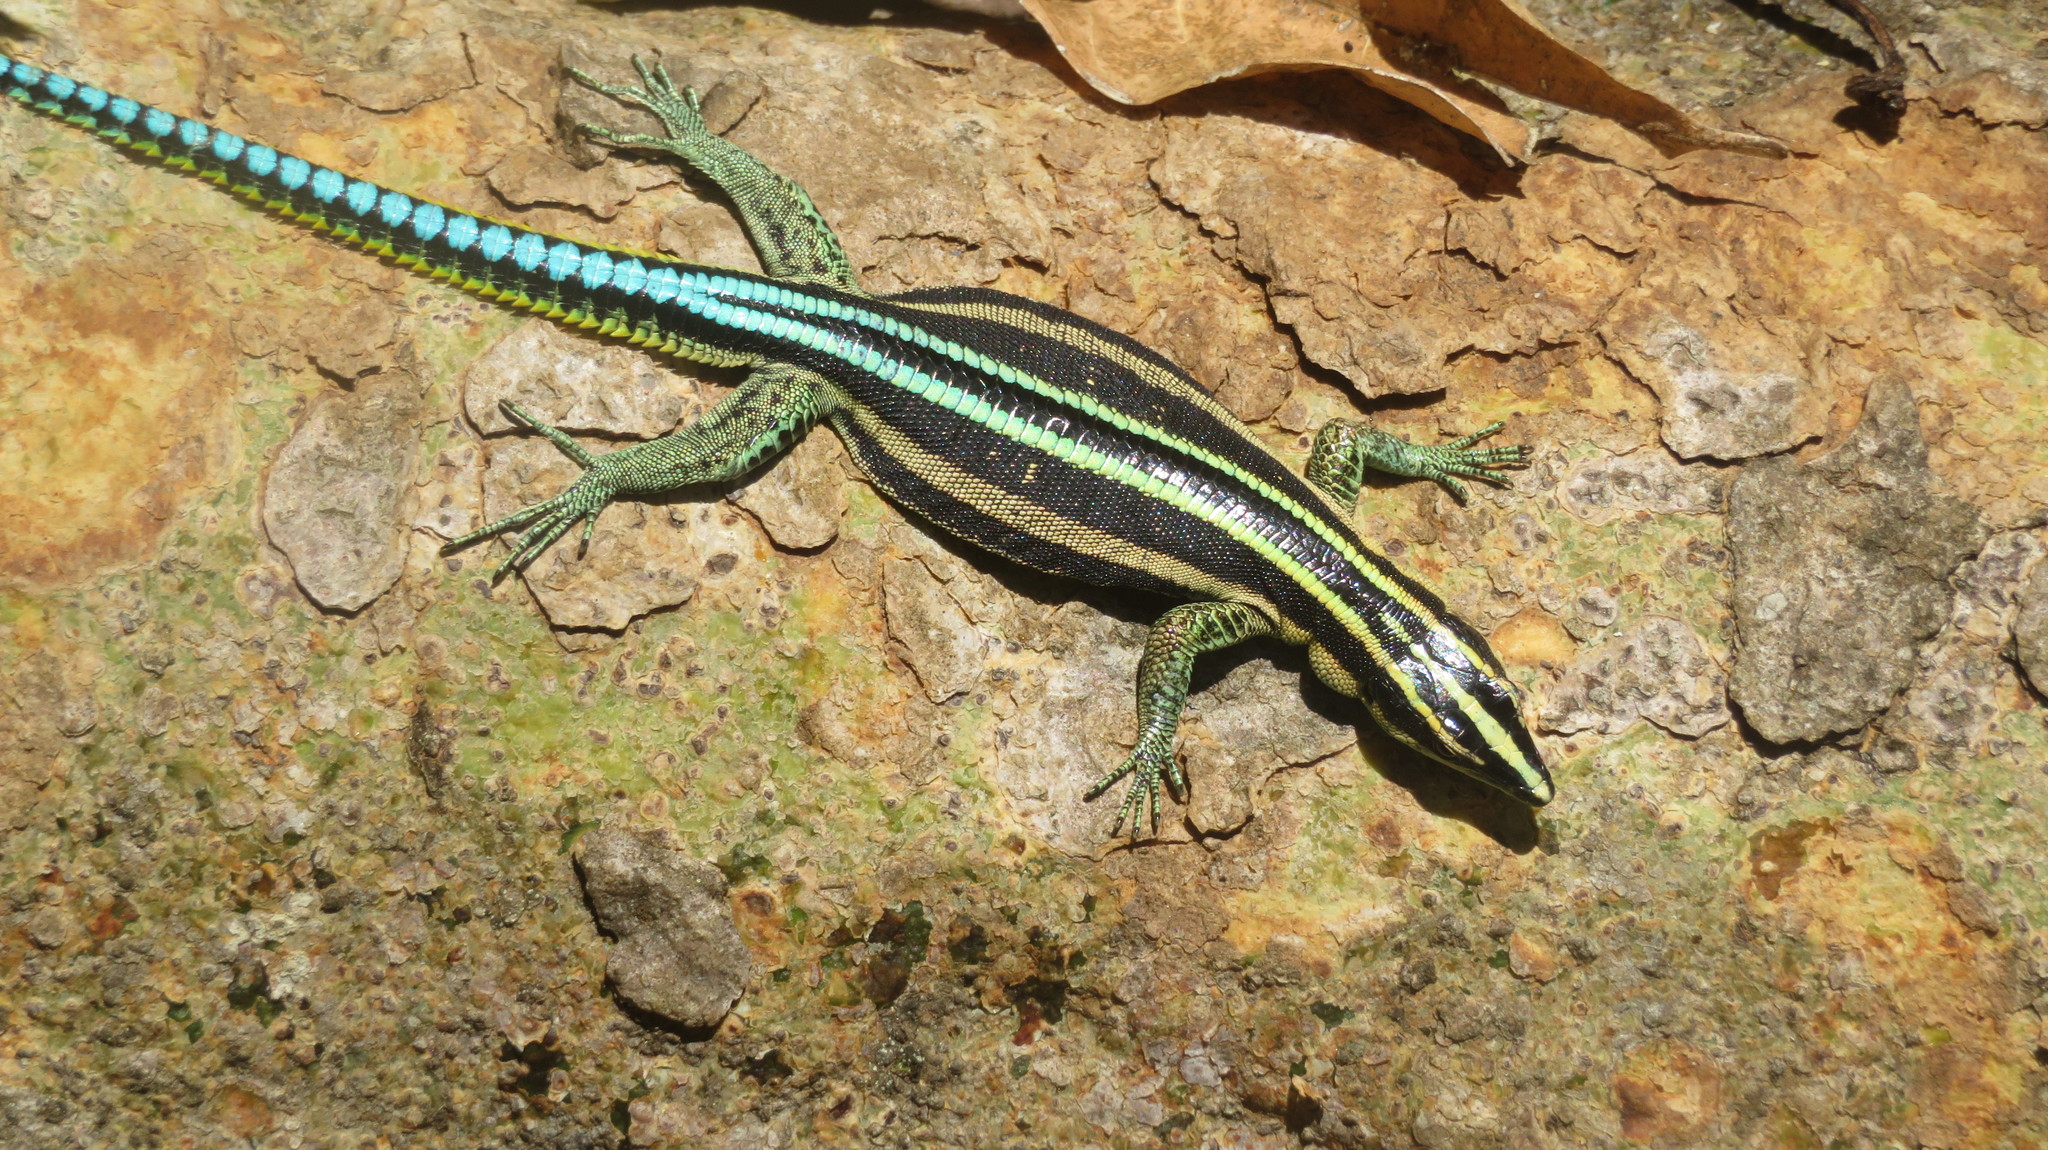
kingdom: Animalia
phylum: Chordata
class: Squamata
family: Lacertidae
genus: Holaspis
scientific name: Holaspis laevis
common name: Eastern serrate-toed tree lizard
